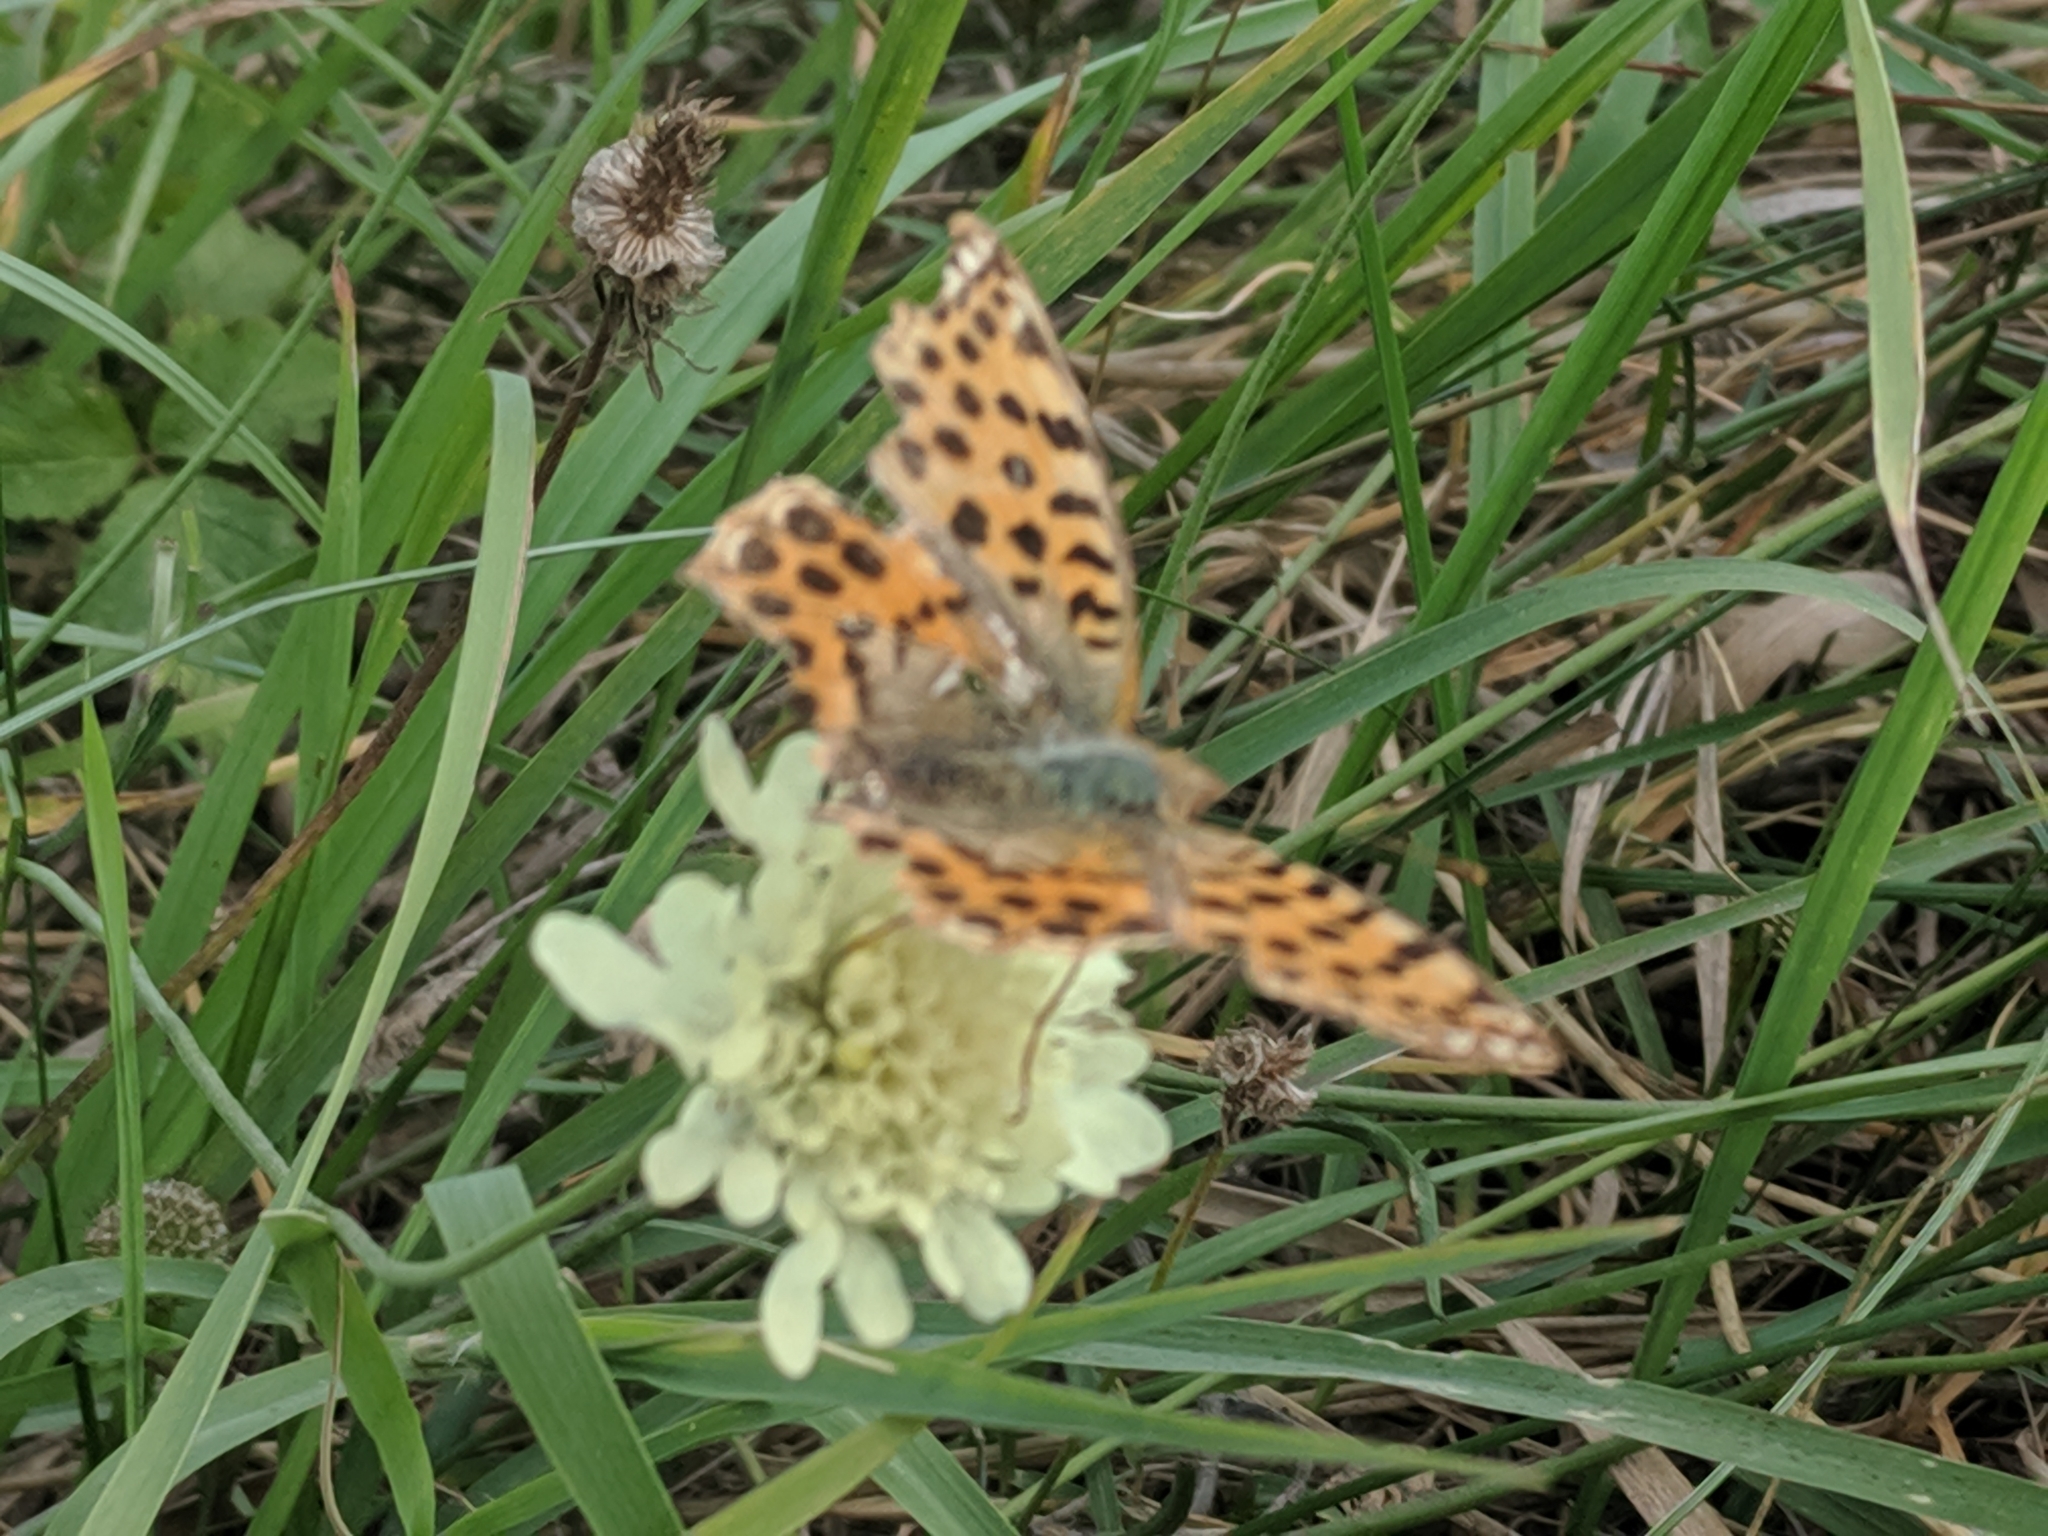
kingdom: Animalia
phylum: Arthropoda
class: Insecta
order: Lepidoptera
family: Nymphalidae
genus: Issoria
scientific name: Issoria lathonia
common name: Queen of spain fritillary
